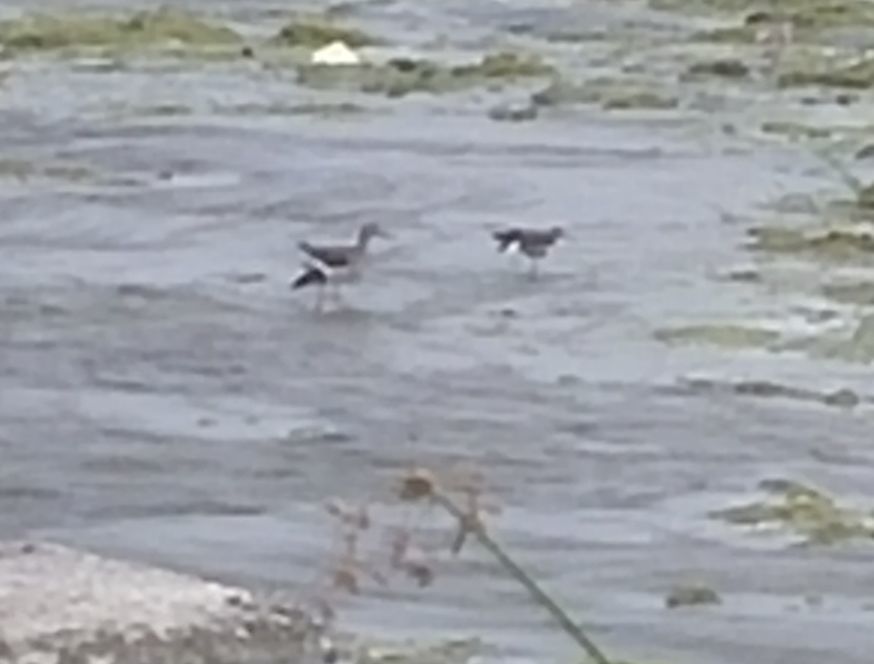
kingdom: Animalia
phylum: Chordata
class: Aves
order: Charadriiformes
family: Scolopacidae
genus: Actitis
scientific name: Actitis macularius
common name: Spotted sandpiper
